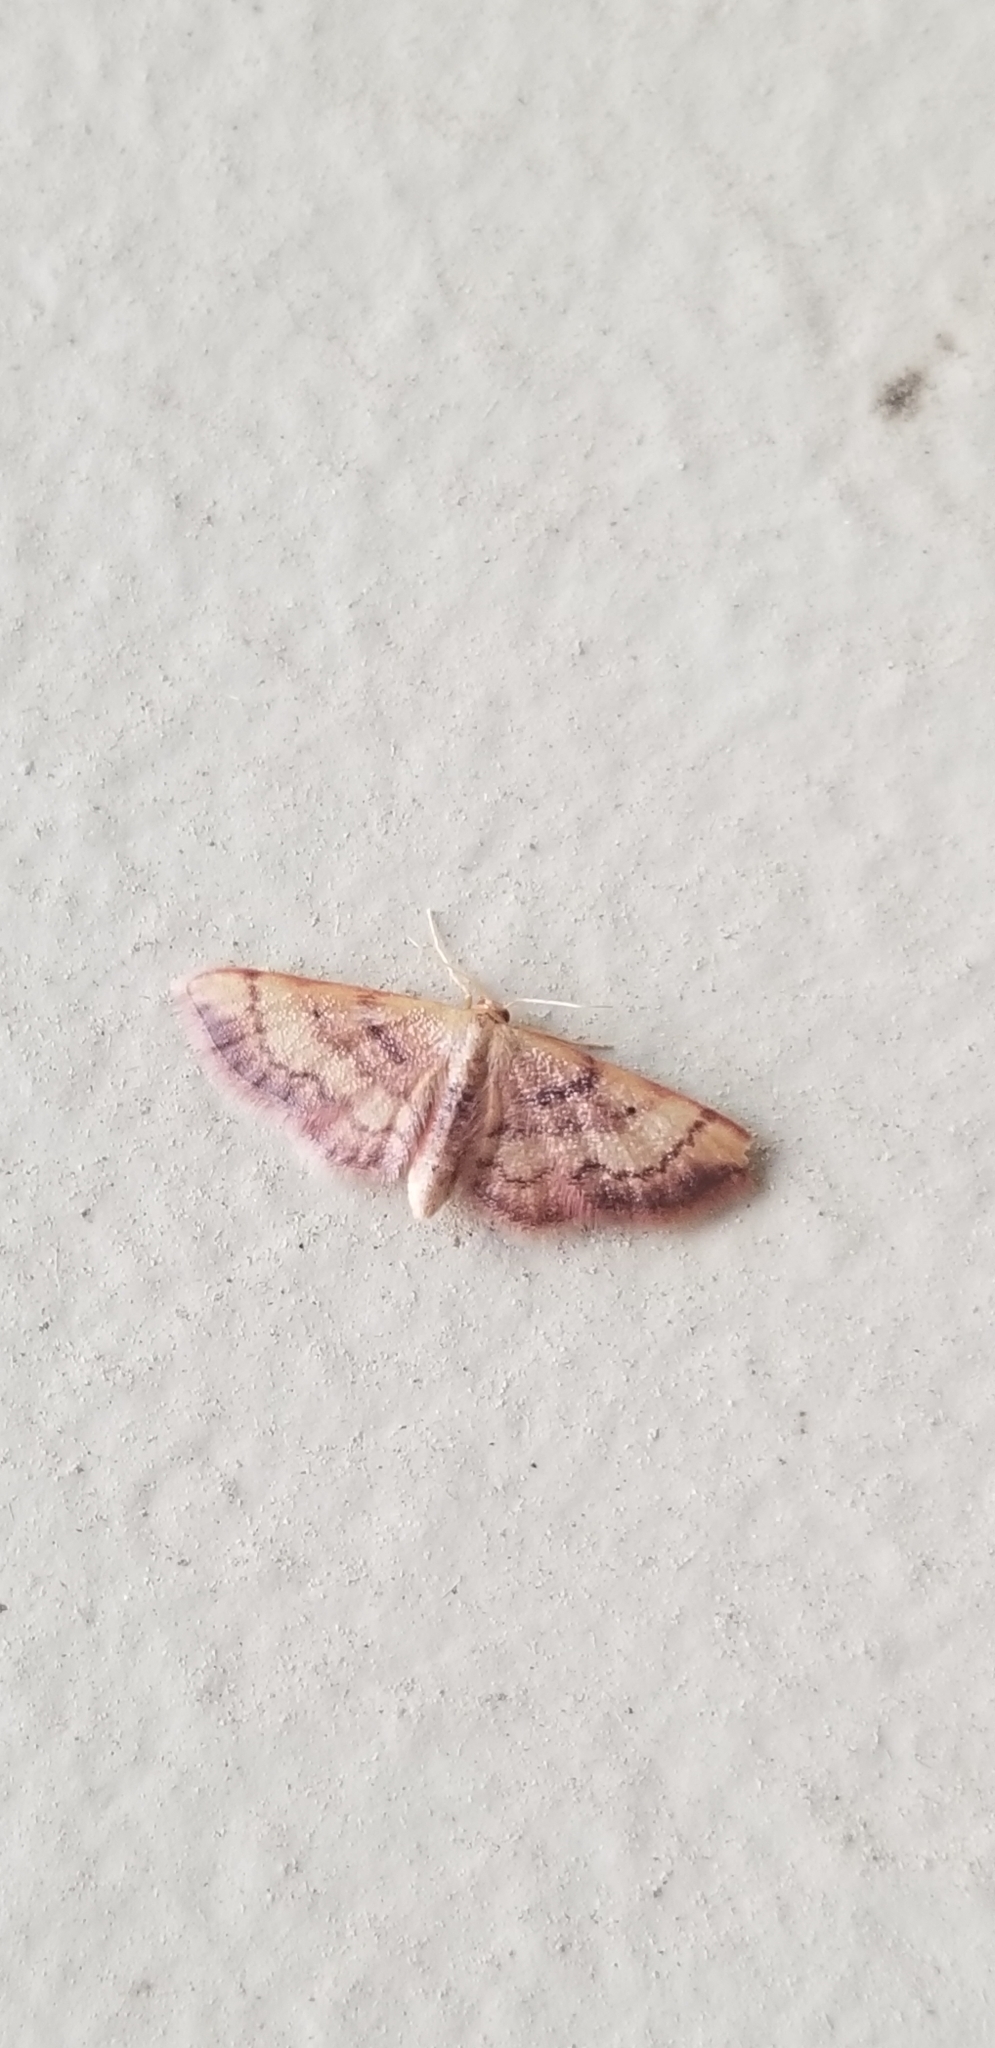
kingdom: Animalia
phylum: Arthropoda
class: Insecta
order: Lepidoptera
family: Geometridae
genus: Idaea
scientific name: Idaea demissaria
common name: Red-bordered wave
